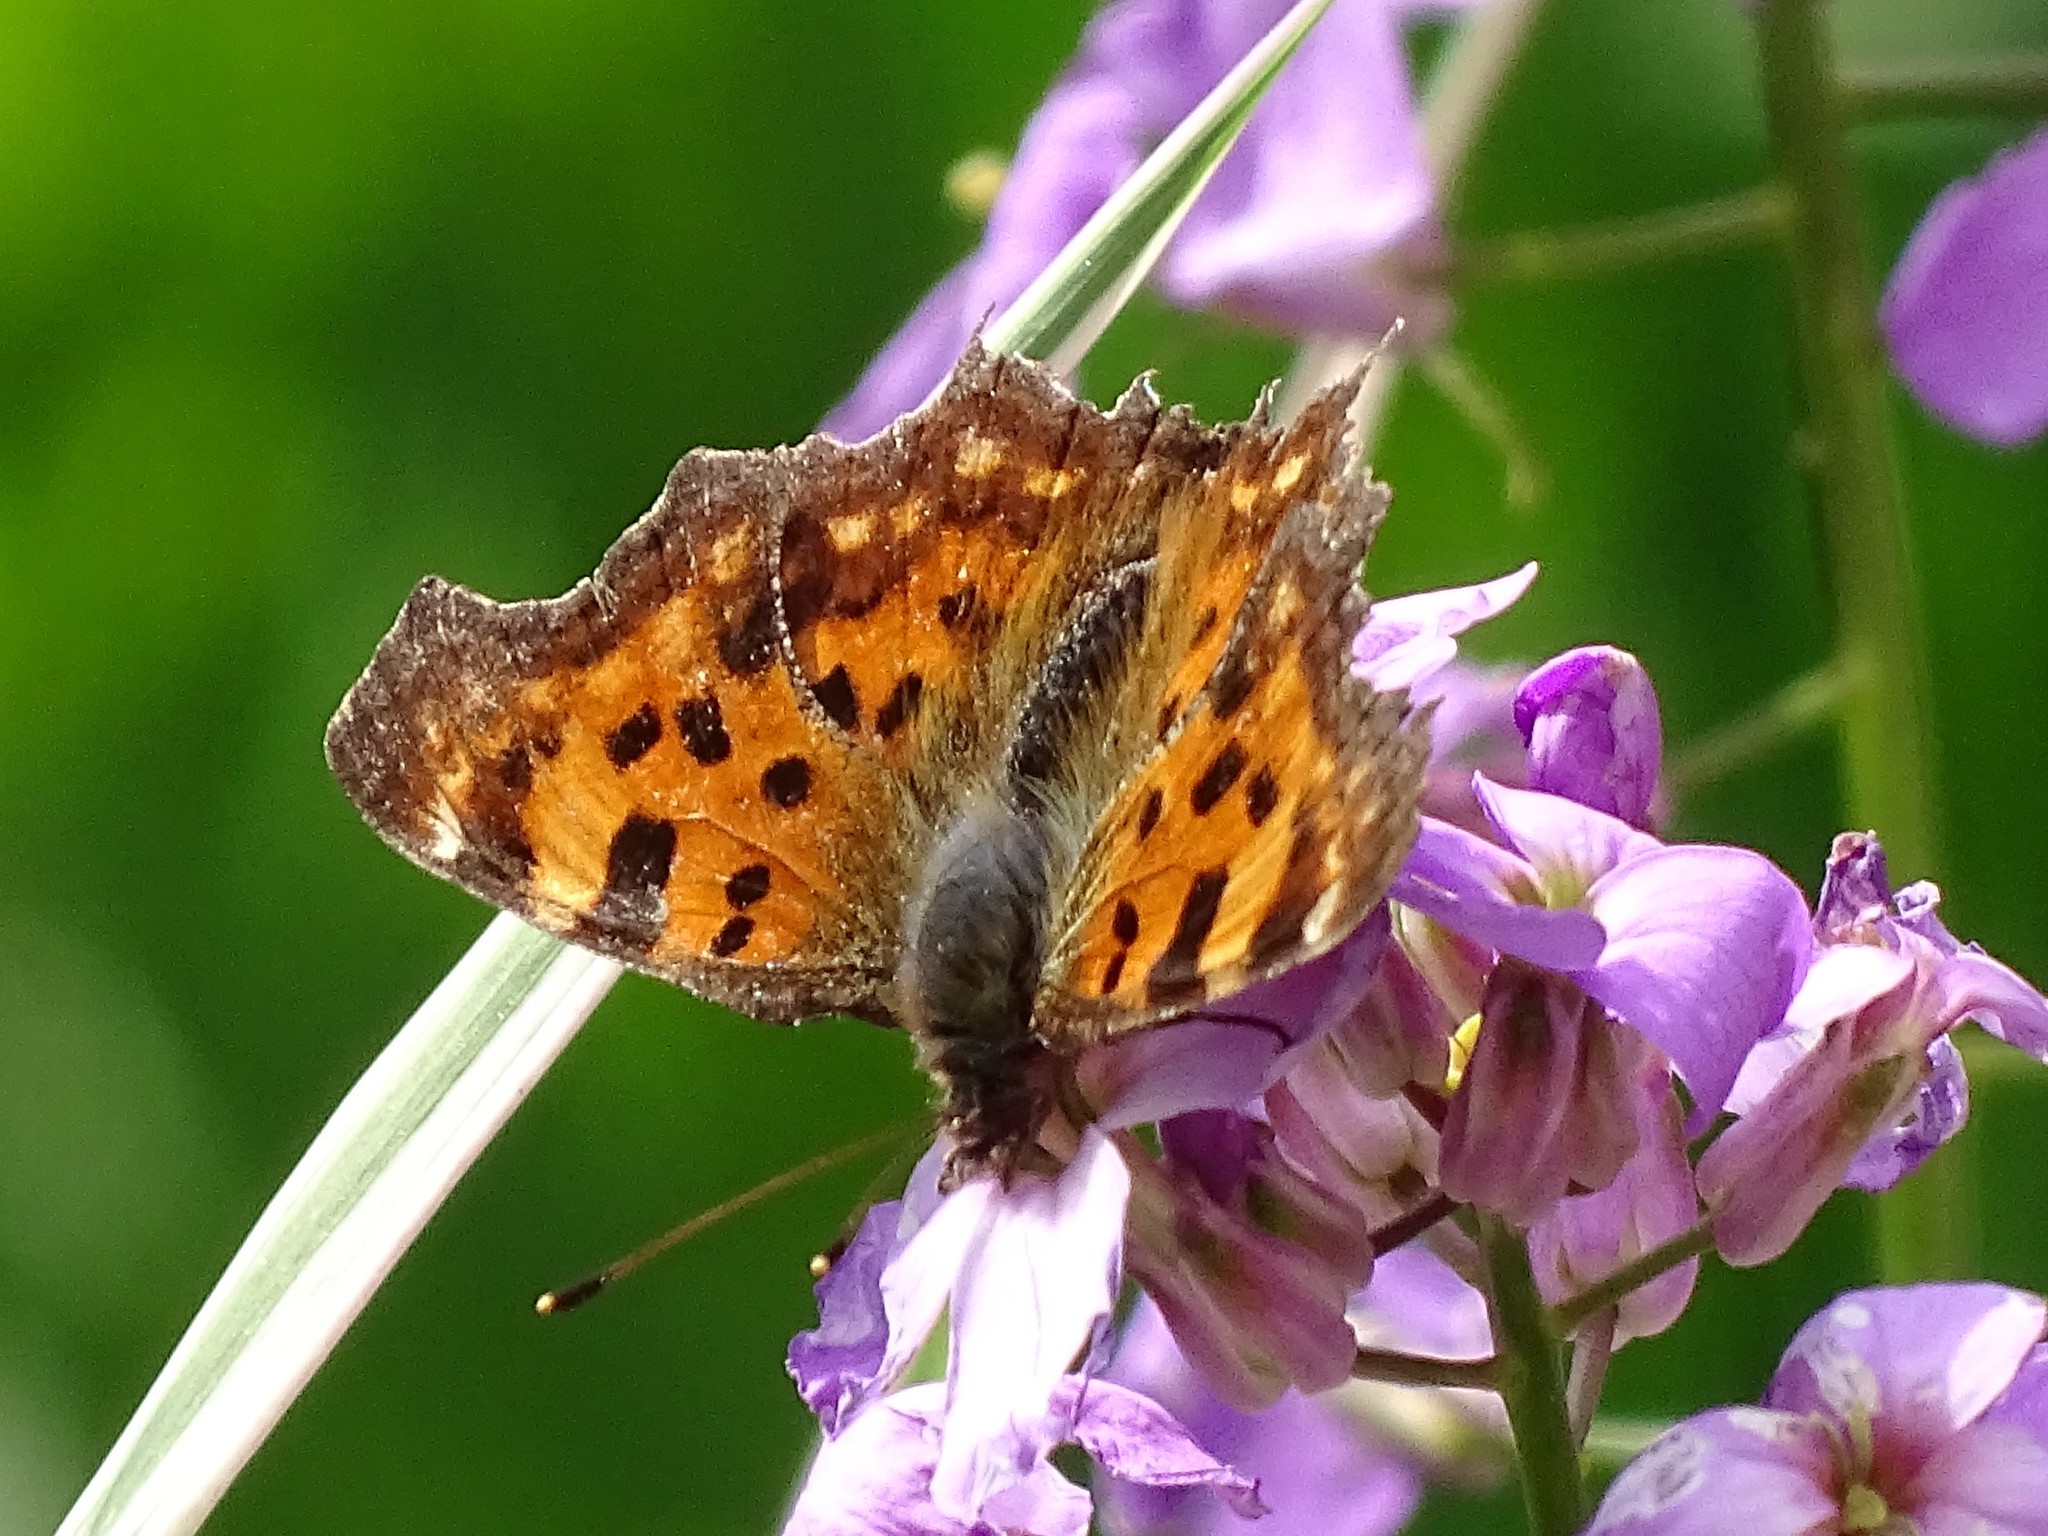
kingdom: Animalia
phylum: Arthropoda
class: Insecta
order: Lepidoptera
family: Nymphalidae
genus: Polygonia
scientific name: Polygonia c-album
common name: Comma
